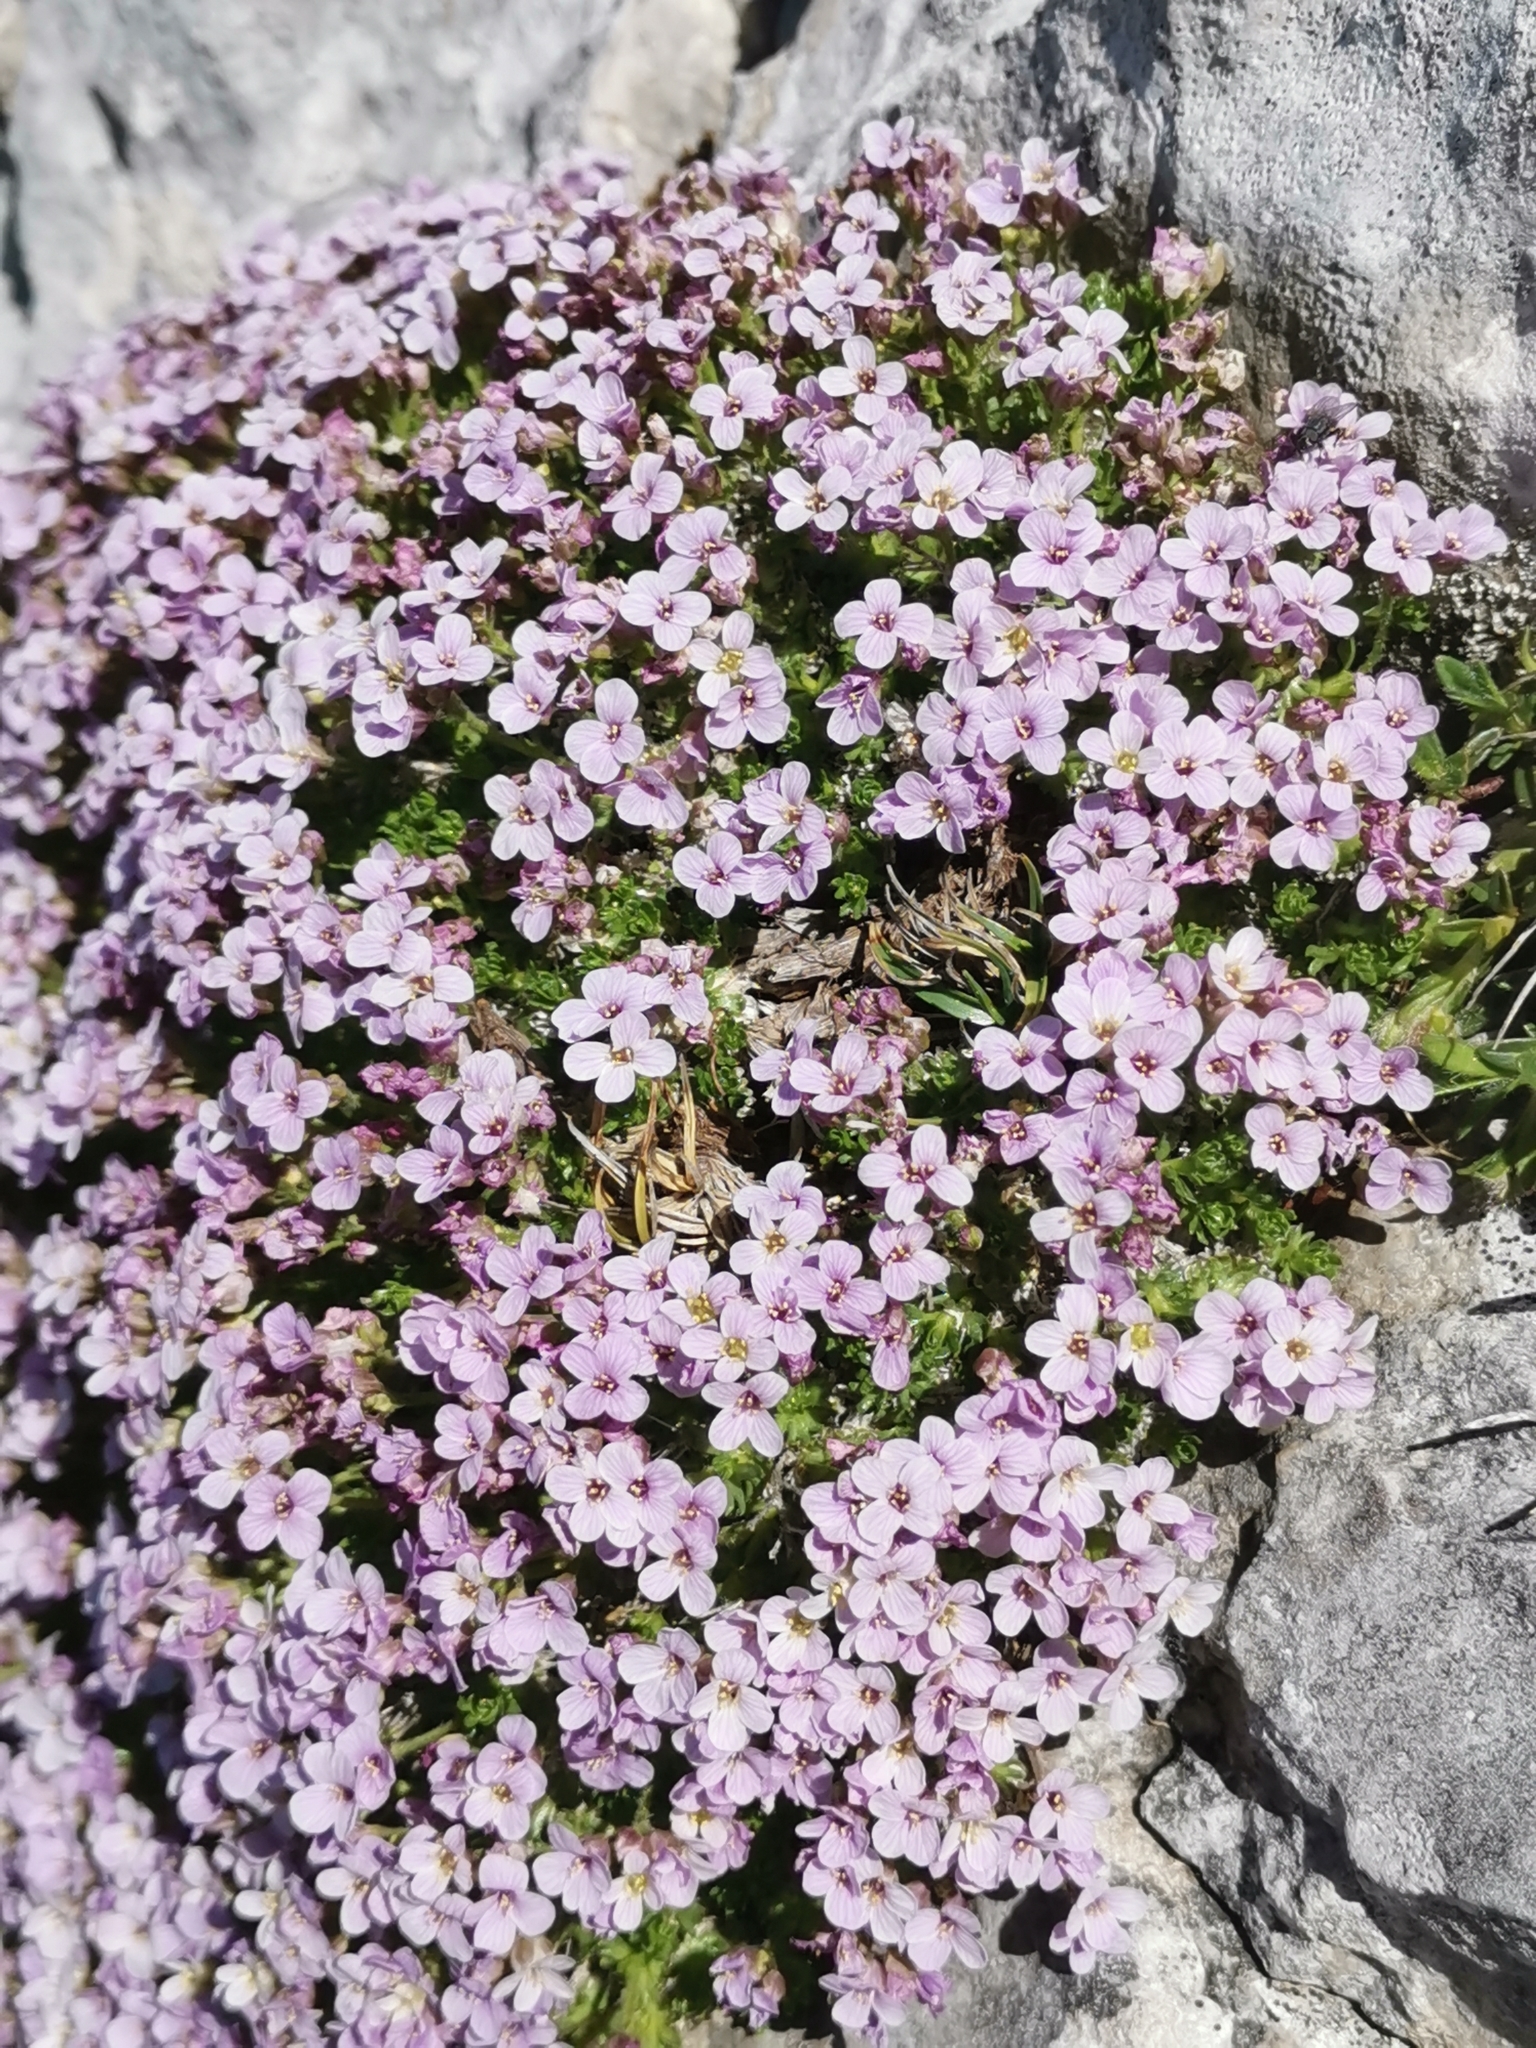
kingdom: Plantae
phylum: Tracheophyta
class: Magnoliopsida
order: Brassicales
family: Brassicaceae
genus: Petrocallis
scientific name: Petrocallis pyrenaica
